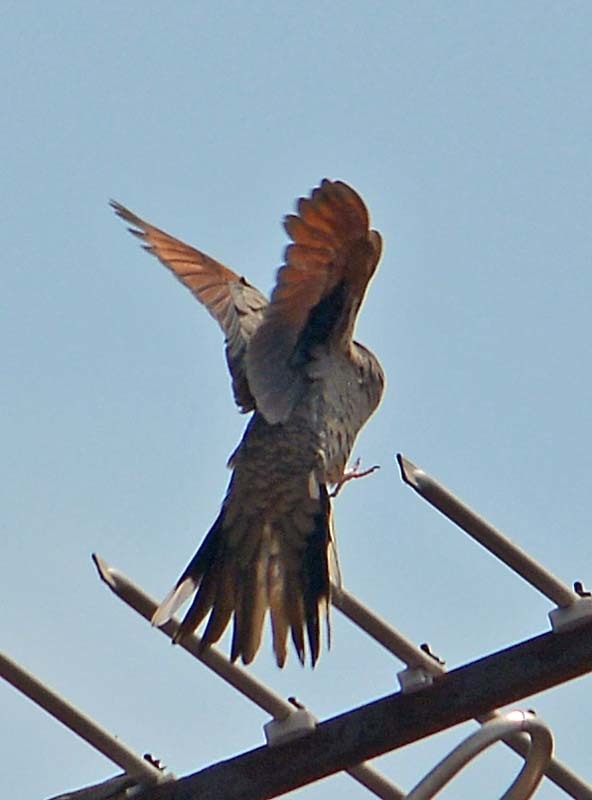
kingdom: Animalia
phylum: Chordata
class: Aves
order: Columbiformes
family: Columbidae
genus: Columbina
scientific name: Columbina inca
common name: Inca dove
